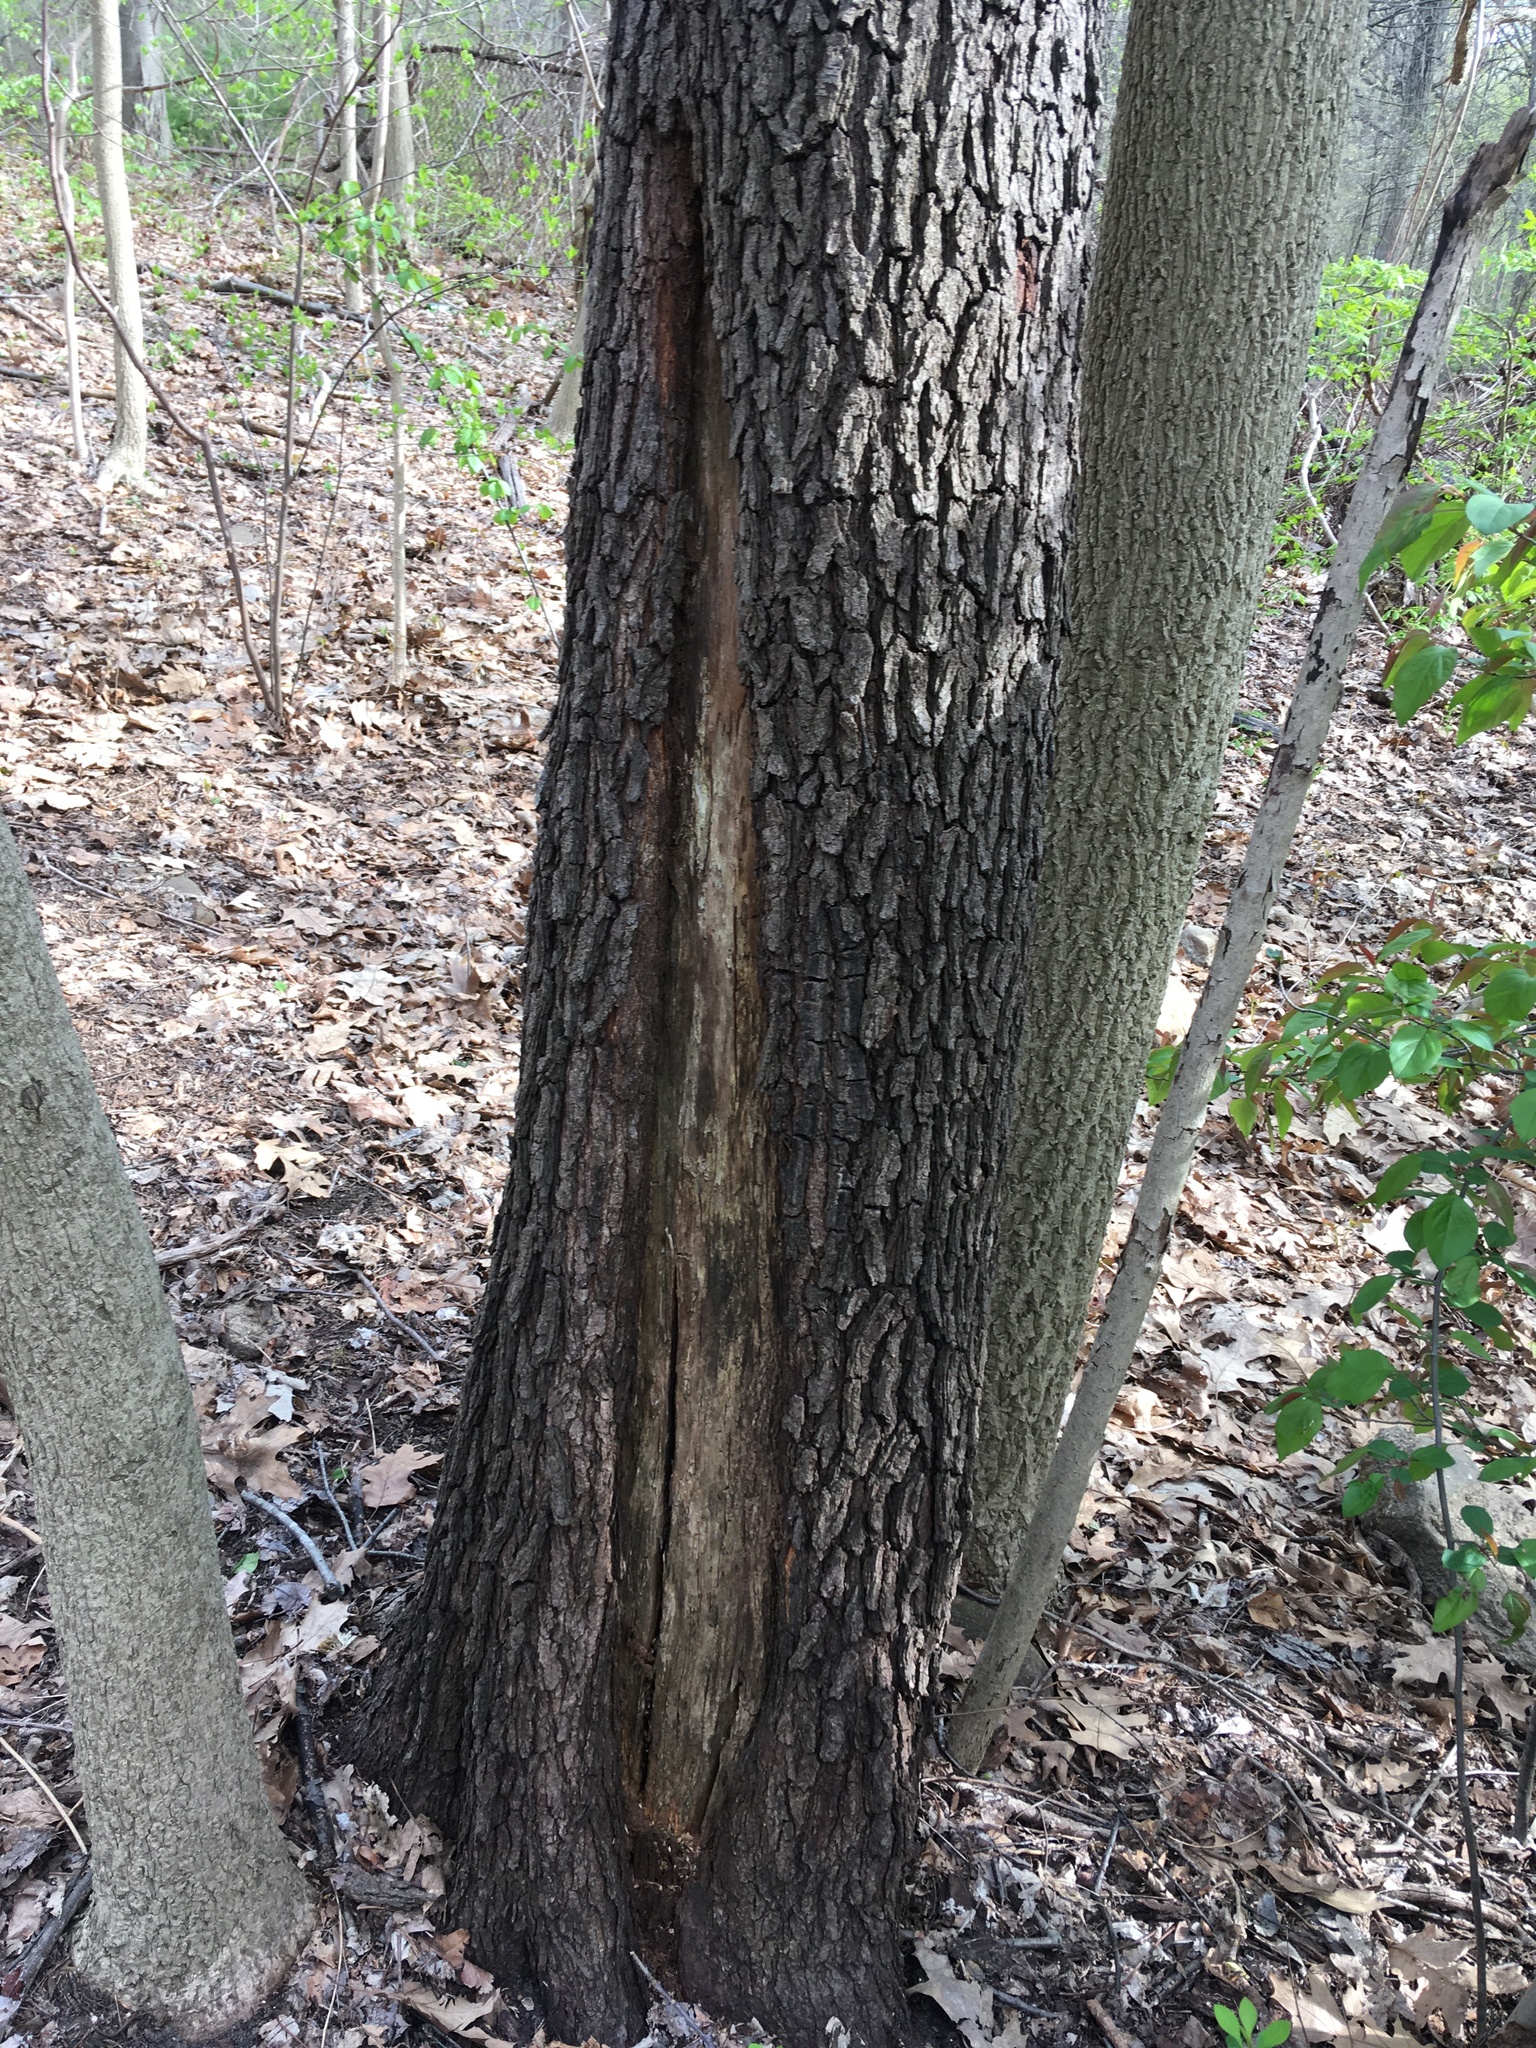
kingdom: Plantae
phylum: Tracheophyta
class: Magnoliopsida
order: Rosales
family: Rosaceae
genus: Prunus
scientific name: Prunus serotina
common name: Black cherry
